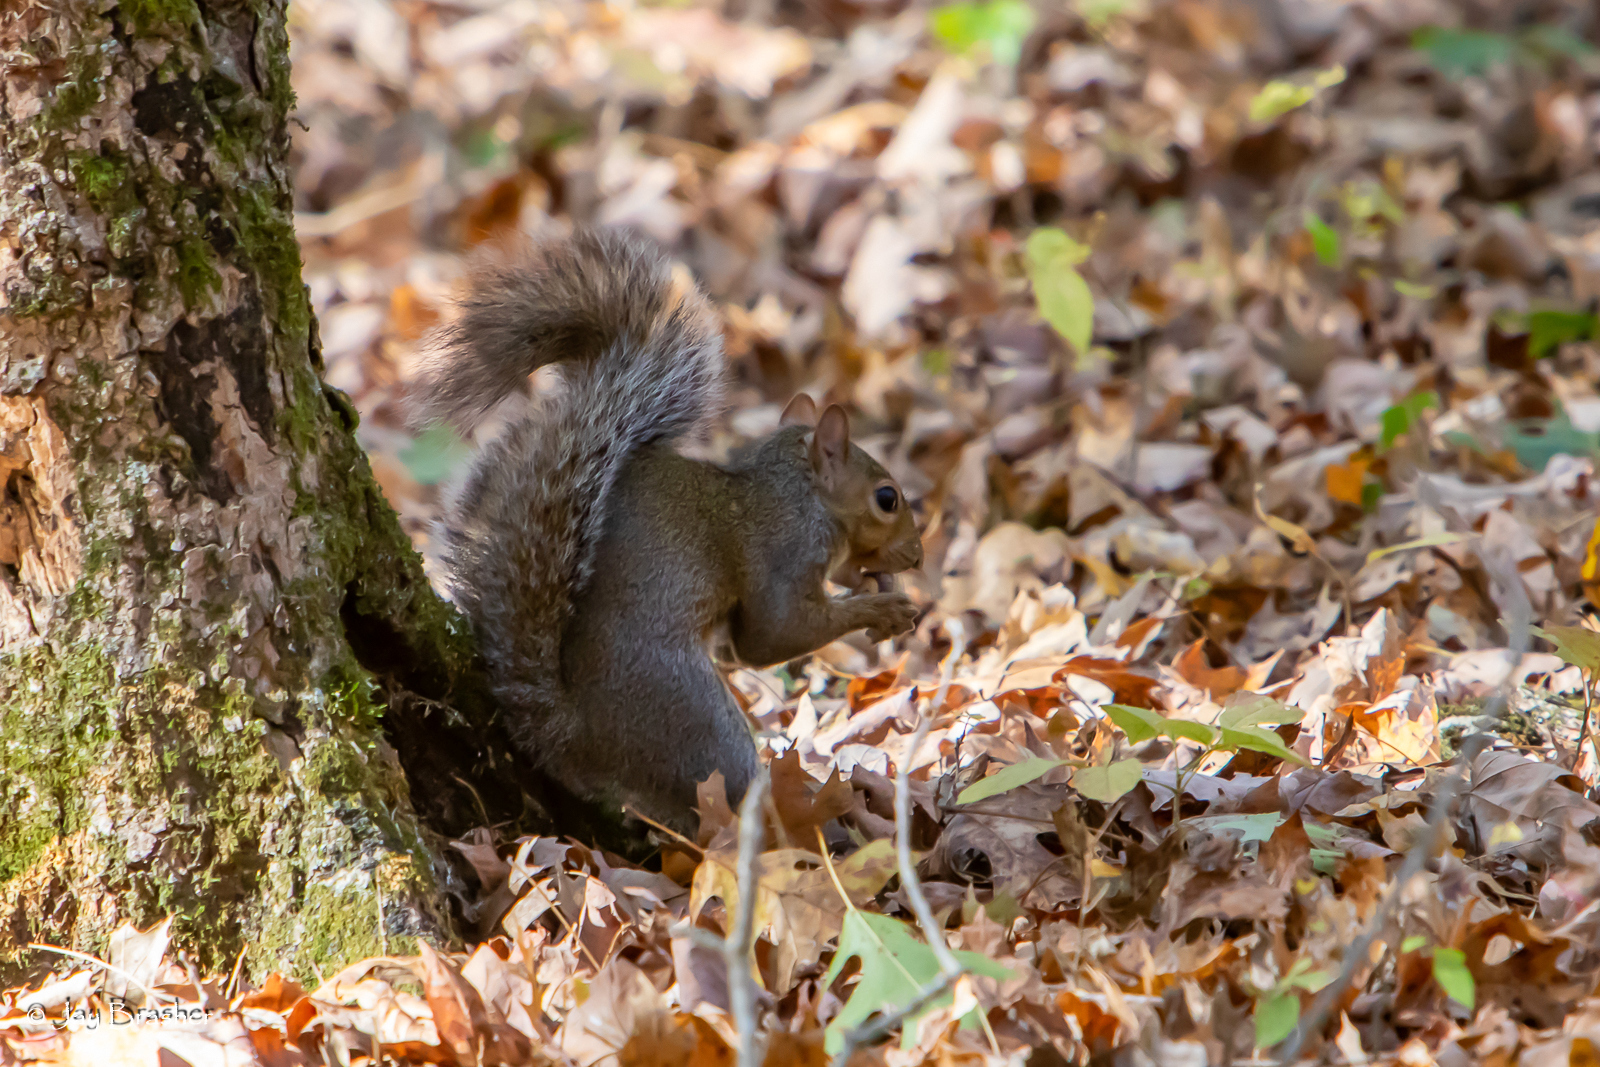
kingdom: Animalia
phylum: Chordata
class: Mammalia
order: Rodentia
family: Sciuridae
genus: Sciurus
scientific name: Sciurus carolinensis
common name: Eastern gray squirrel
